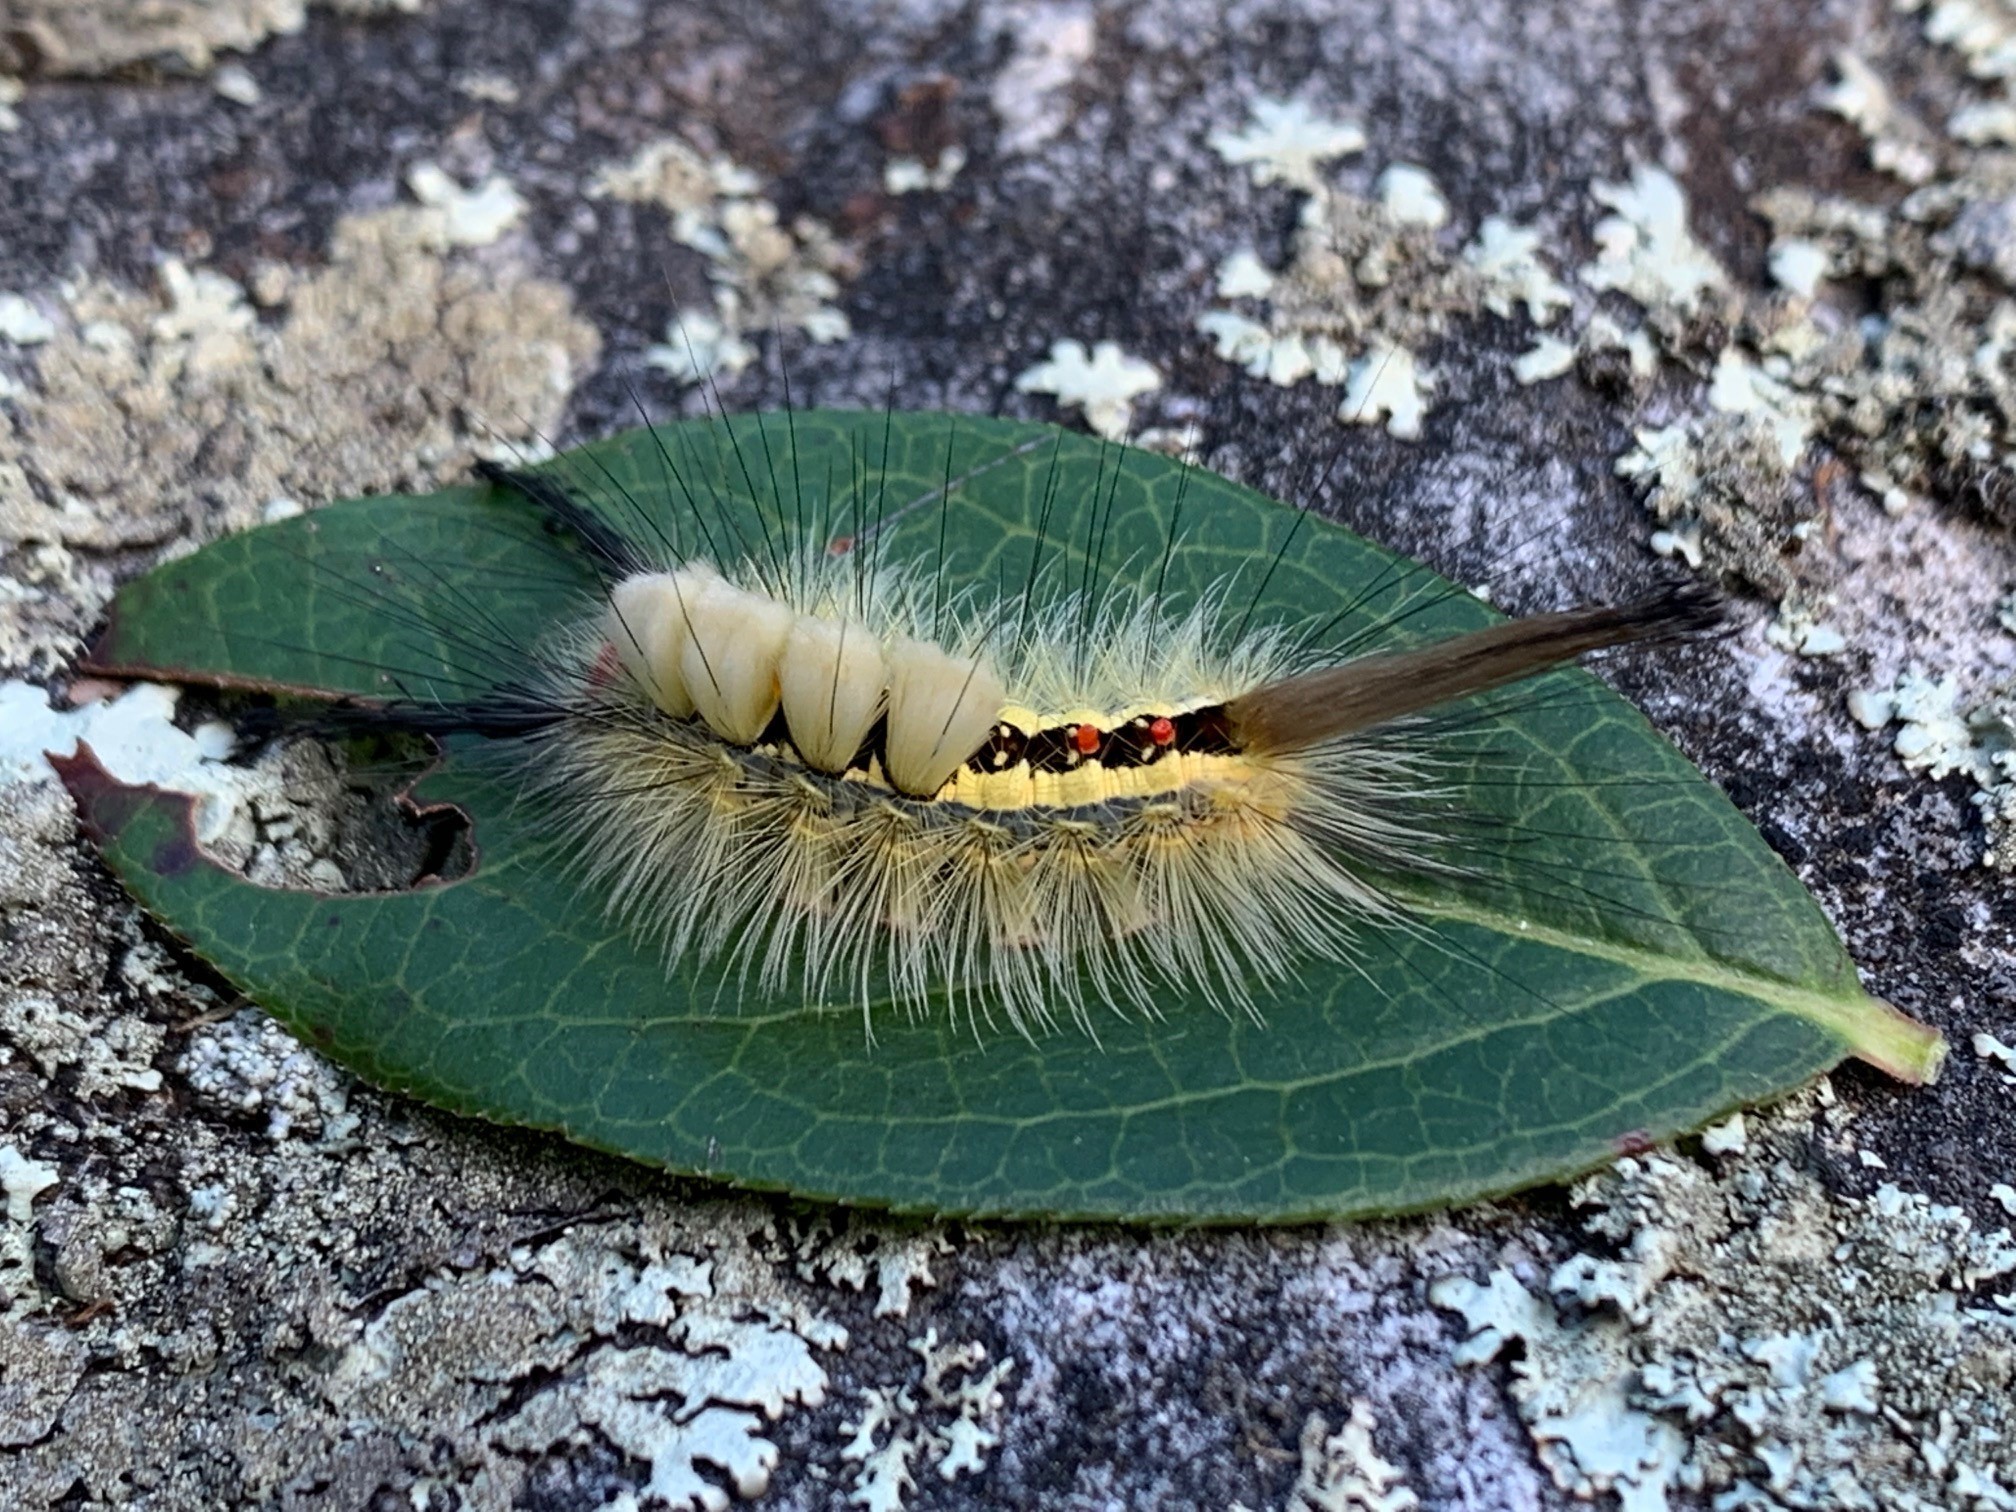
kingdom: Animalia
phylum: Arthropoda
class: Insecta
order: Lepidoptera
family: Erebidae
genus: Orgyia
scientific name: Orgyia leucostigma
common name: White-marked tussock moth
